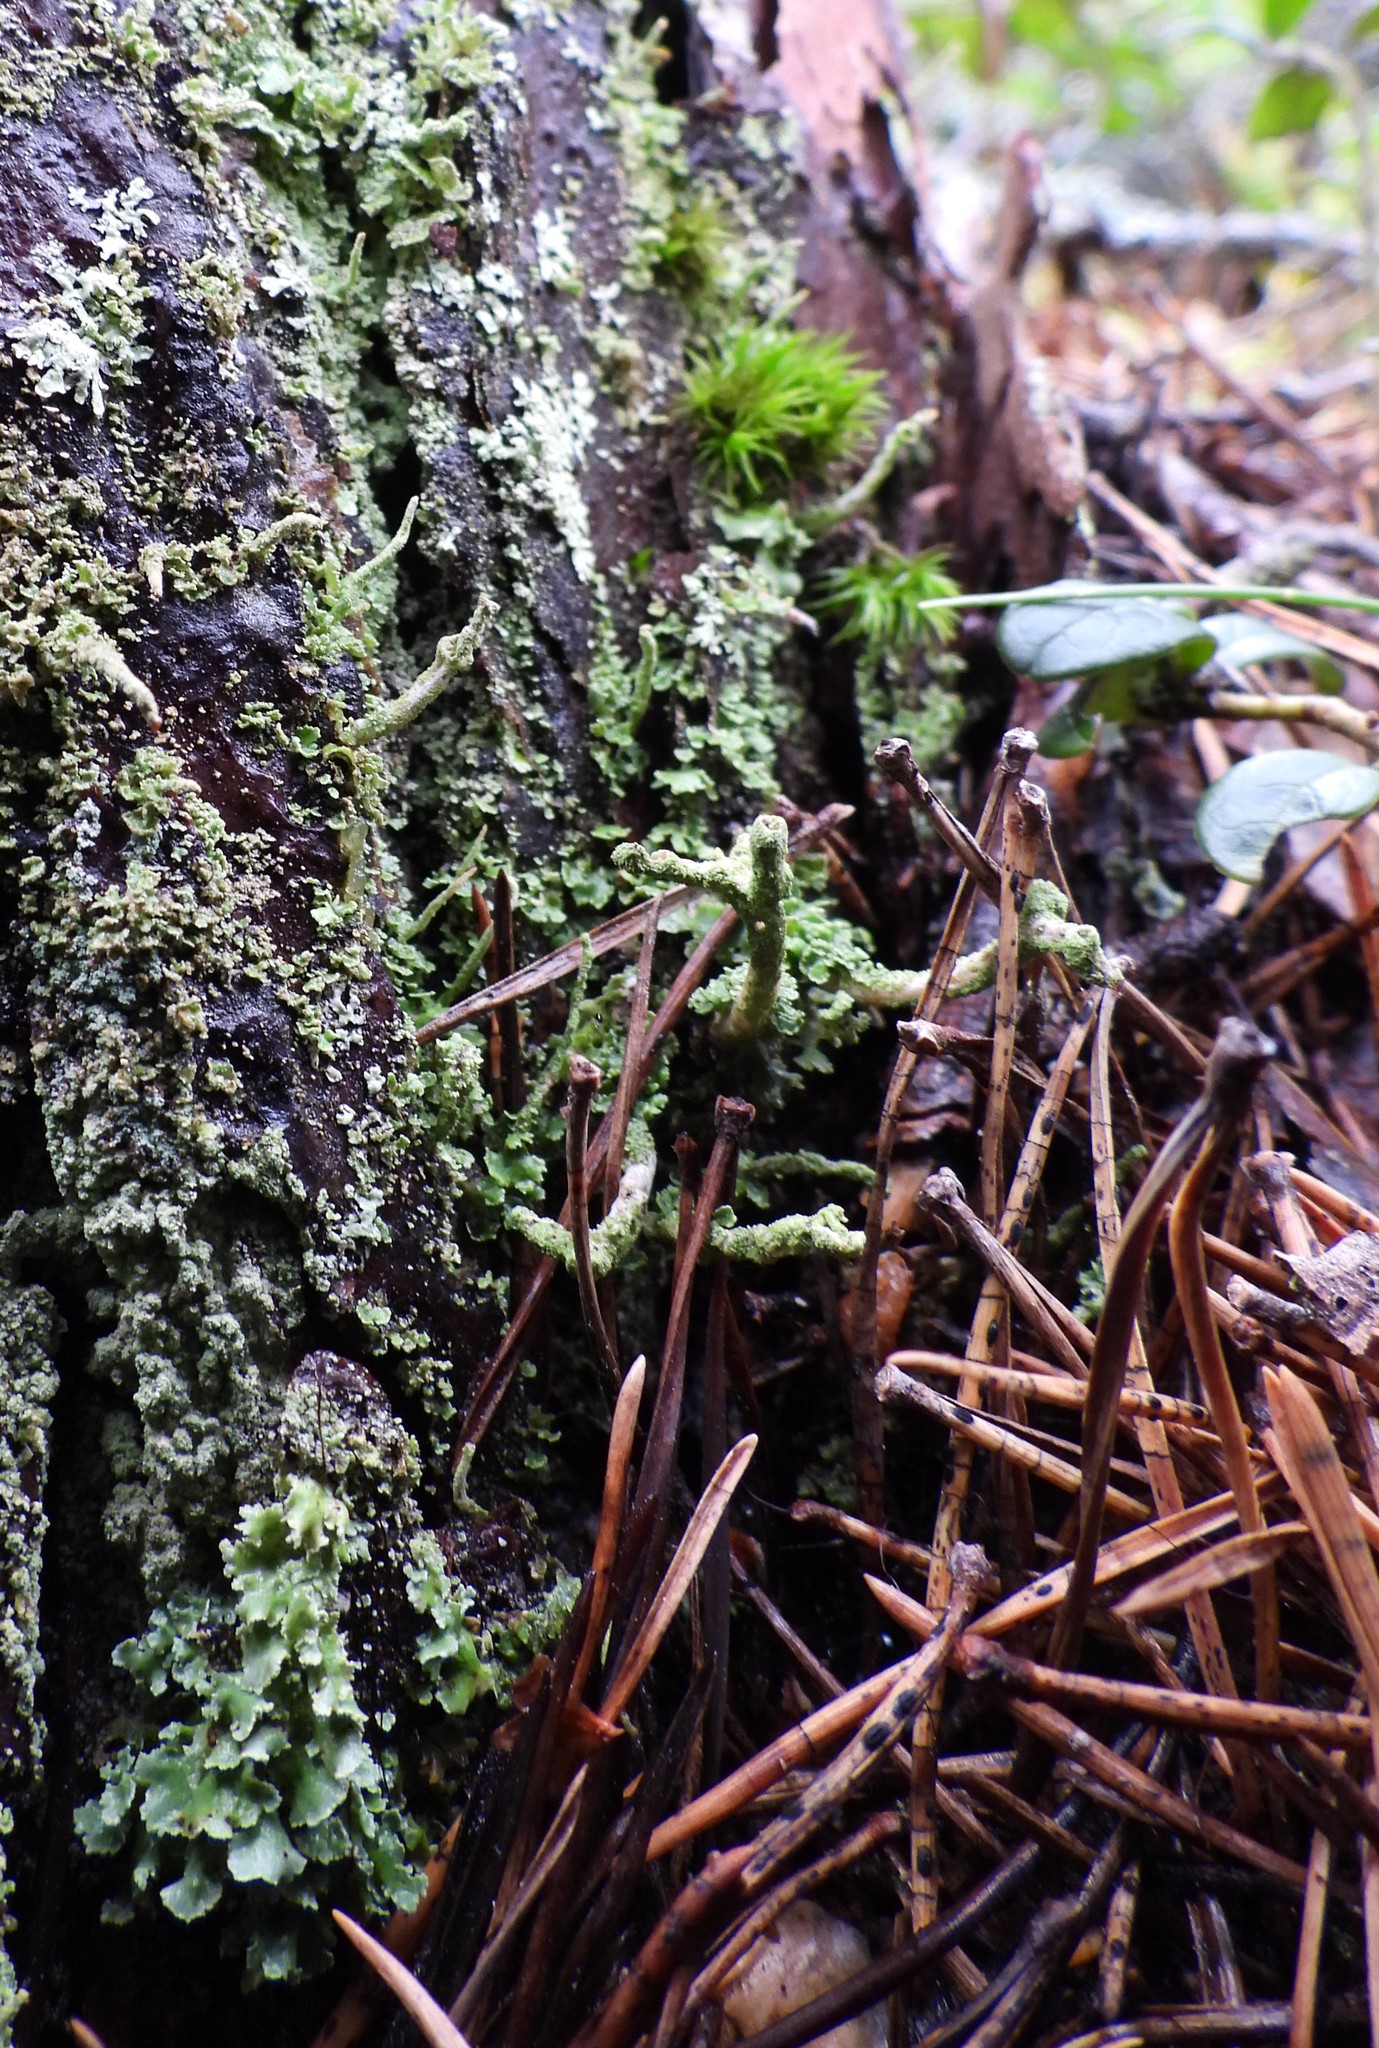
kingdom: Fungi
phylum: Ascomycota
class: Lecanoromycetes
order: Lecanorales
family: Cladoniaceae
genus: Cladonia
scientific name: Cladonia digitata
